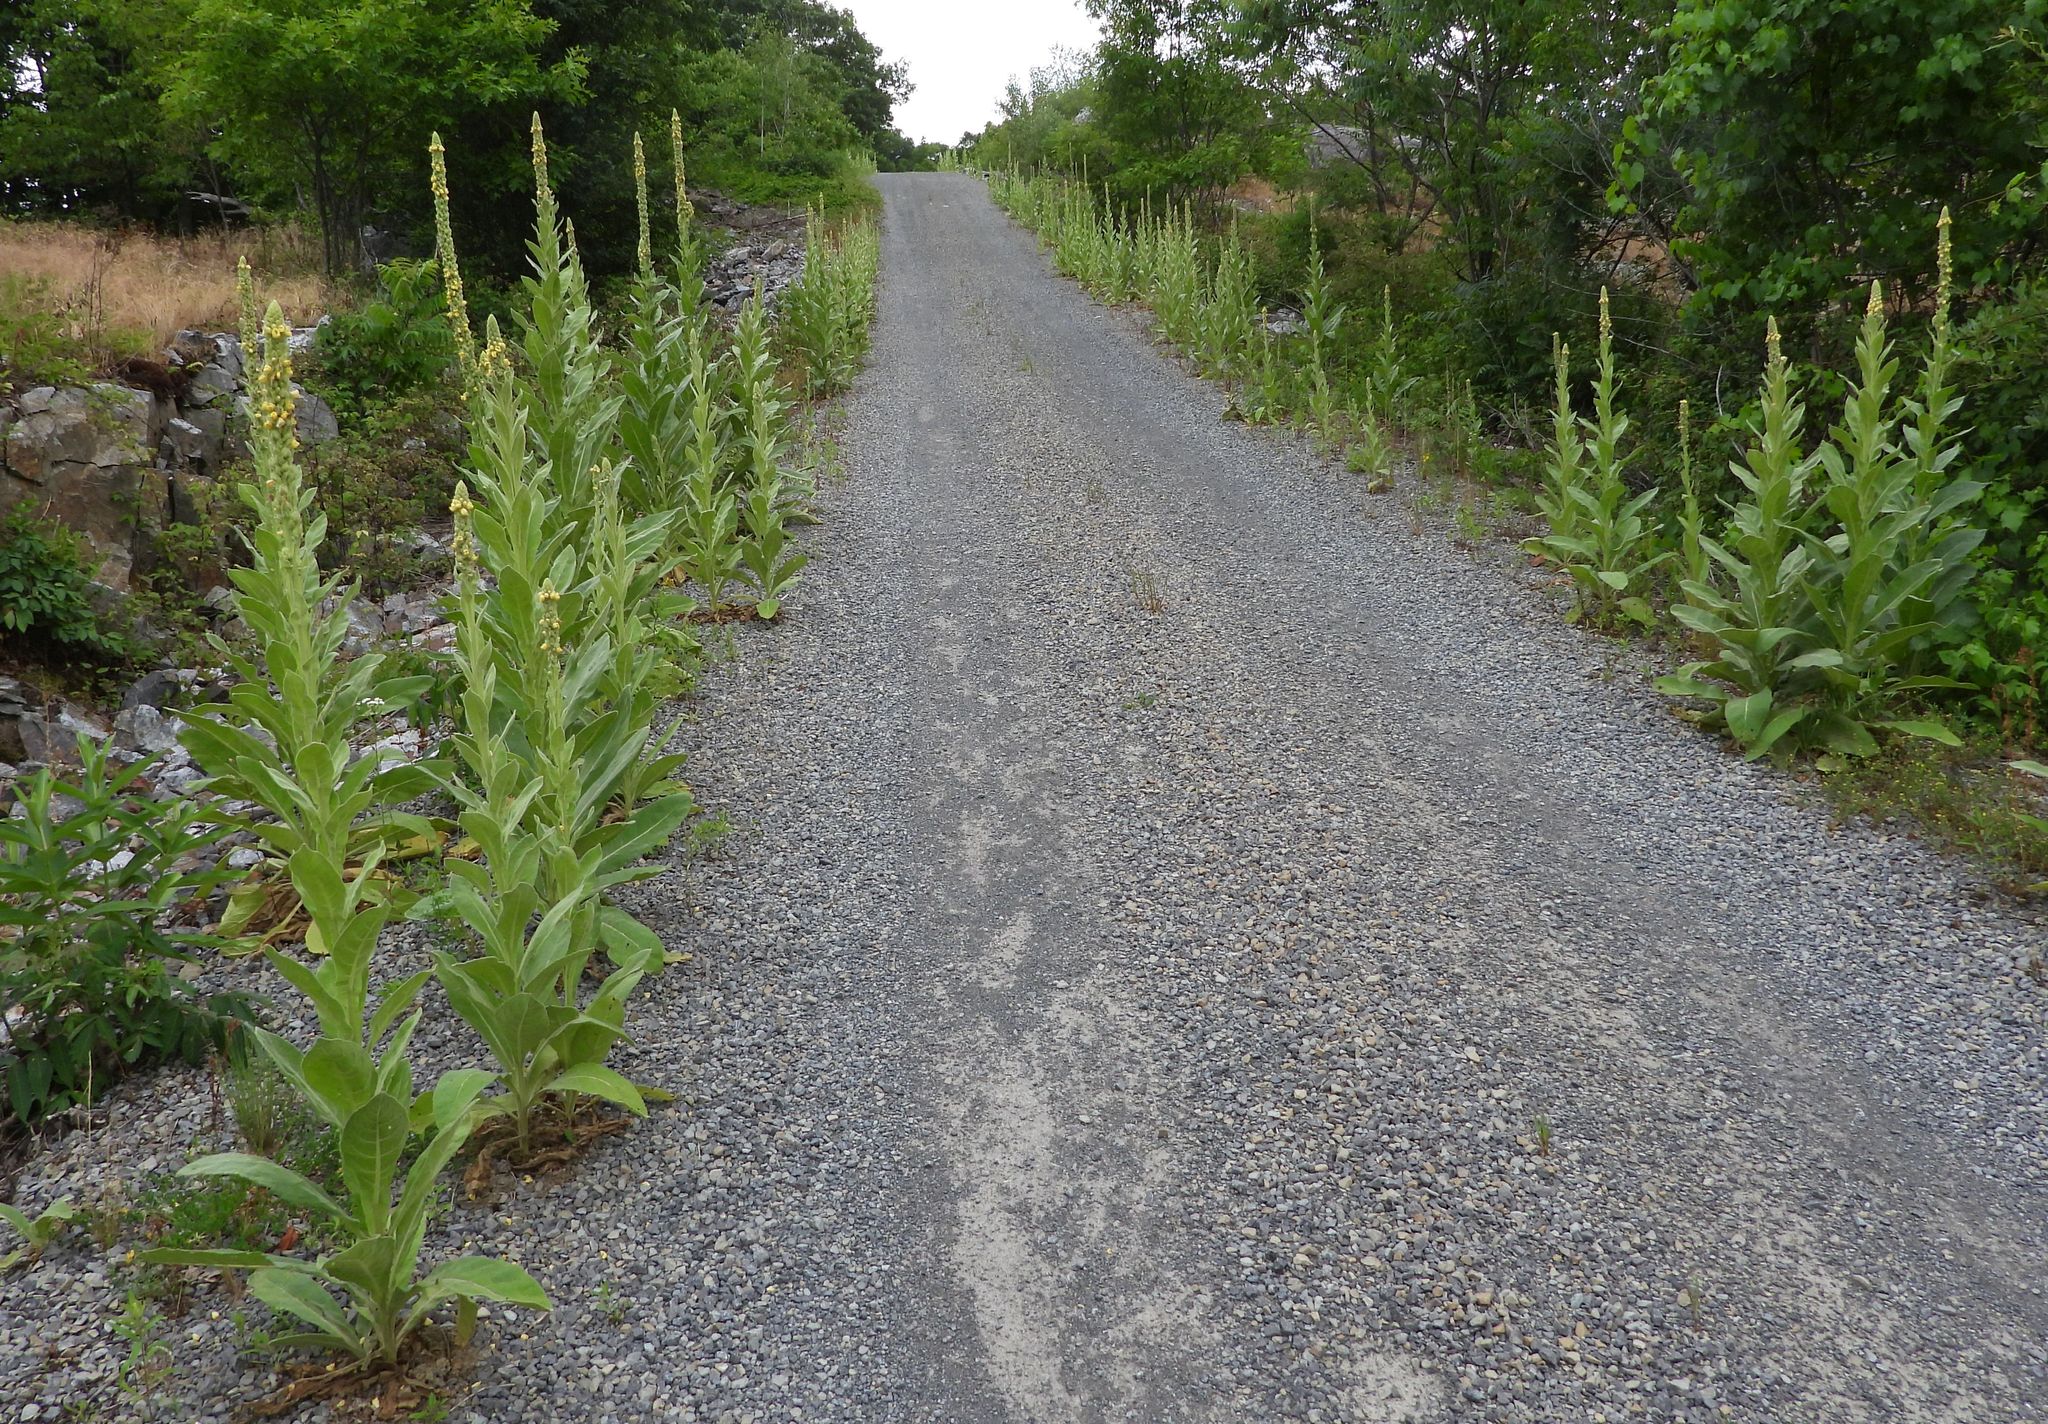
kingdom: Plantae
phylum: Tracheophyta
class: Magnoliopsida
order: Lamiales
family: Scrophulariaceae
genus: Verbascum
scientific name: Verbascum thapsus
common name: Common mullein
